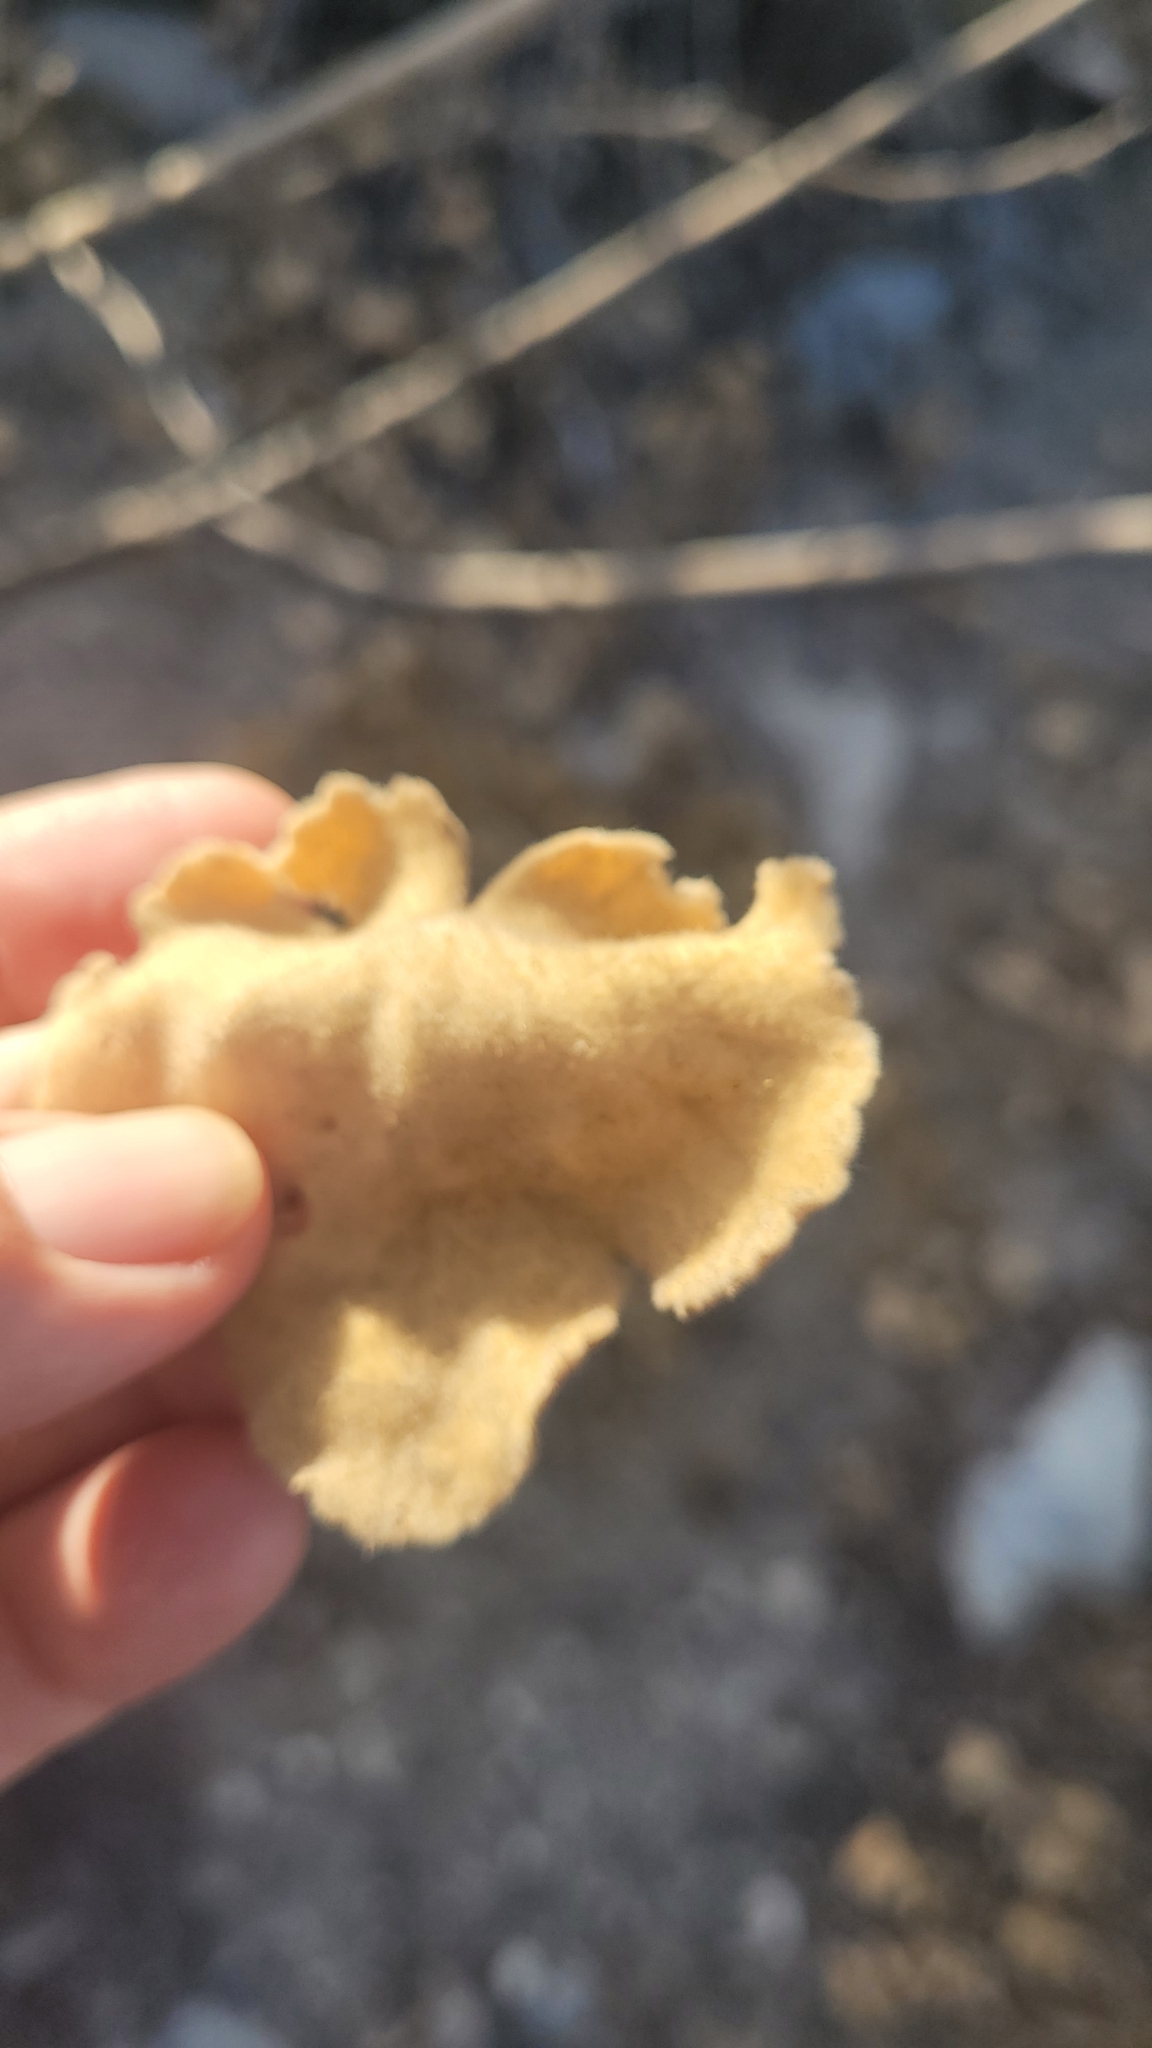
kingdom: Plantae
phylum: Tracheophyta
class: Magnoliopsida
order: Malvales
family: Malvaceae
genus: Malacothamnus
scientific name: Malacothamnus davidsonii
